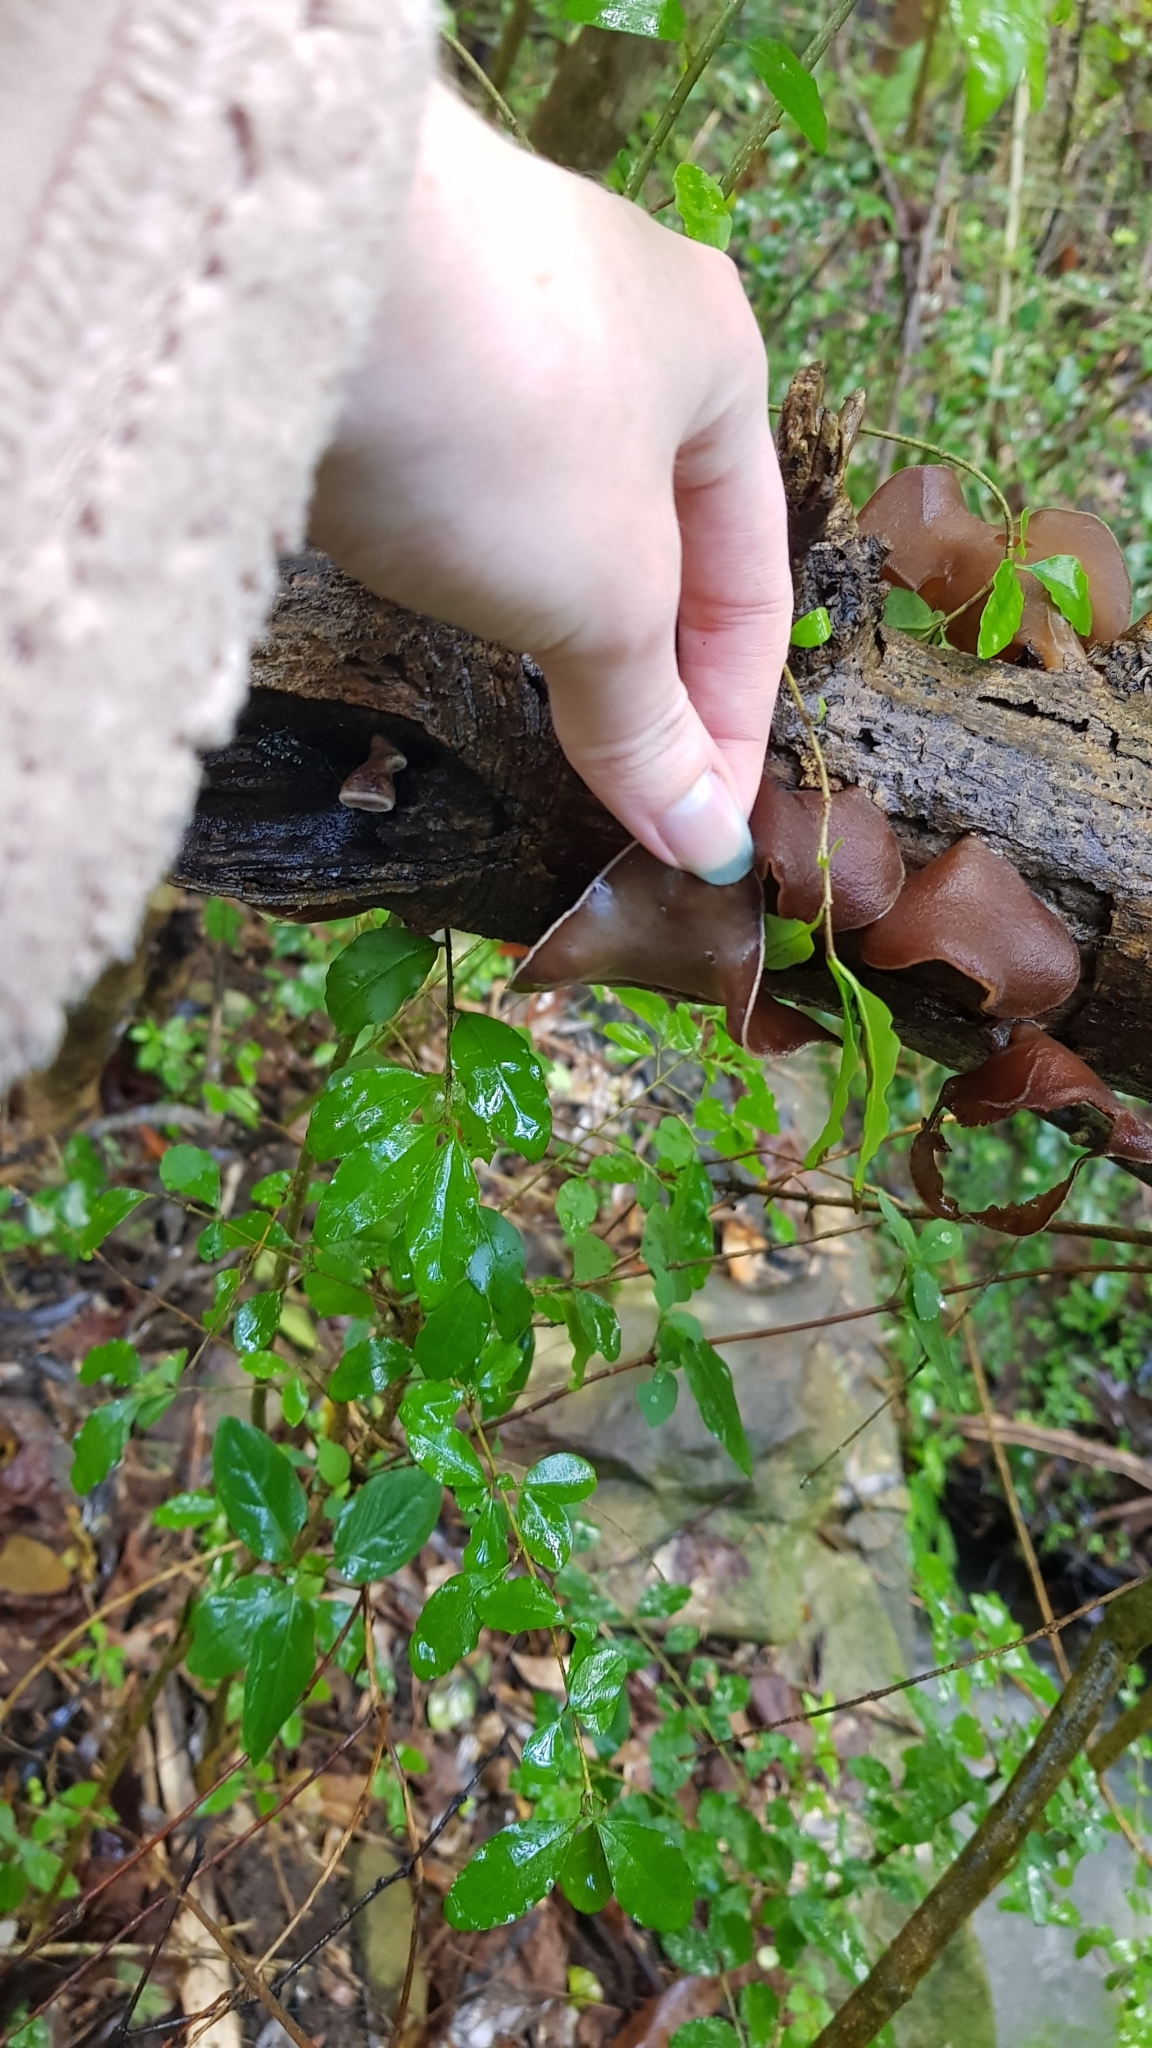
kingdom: Fungi
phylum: Basidiomycota
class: Agaricomycetes
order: Auriculariales
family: Auriculariaceae
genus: Auricularia
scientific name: Auricularia cornea
